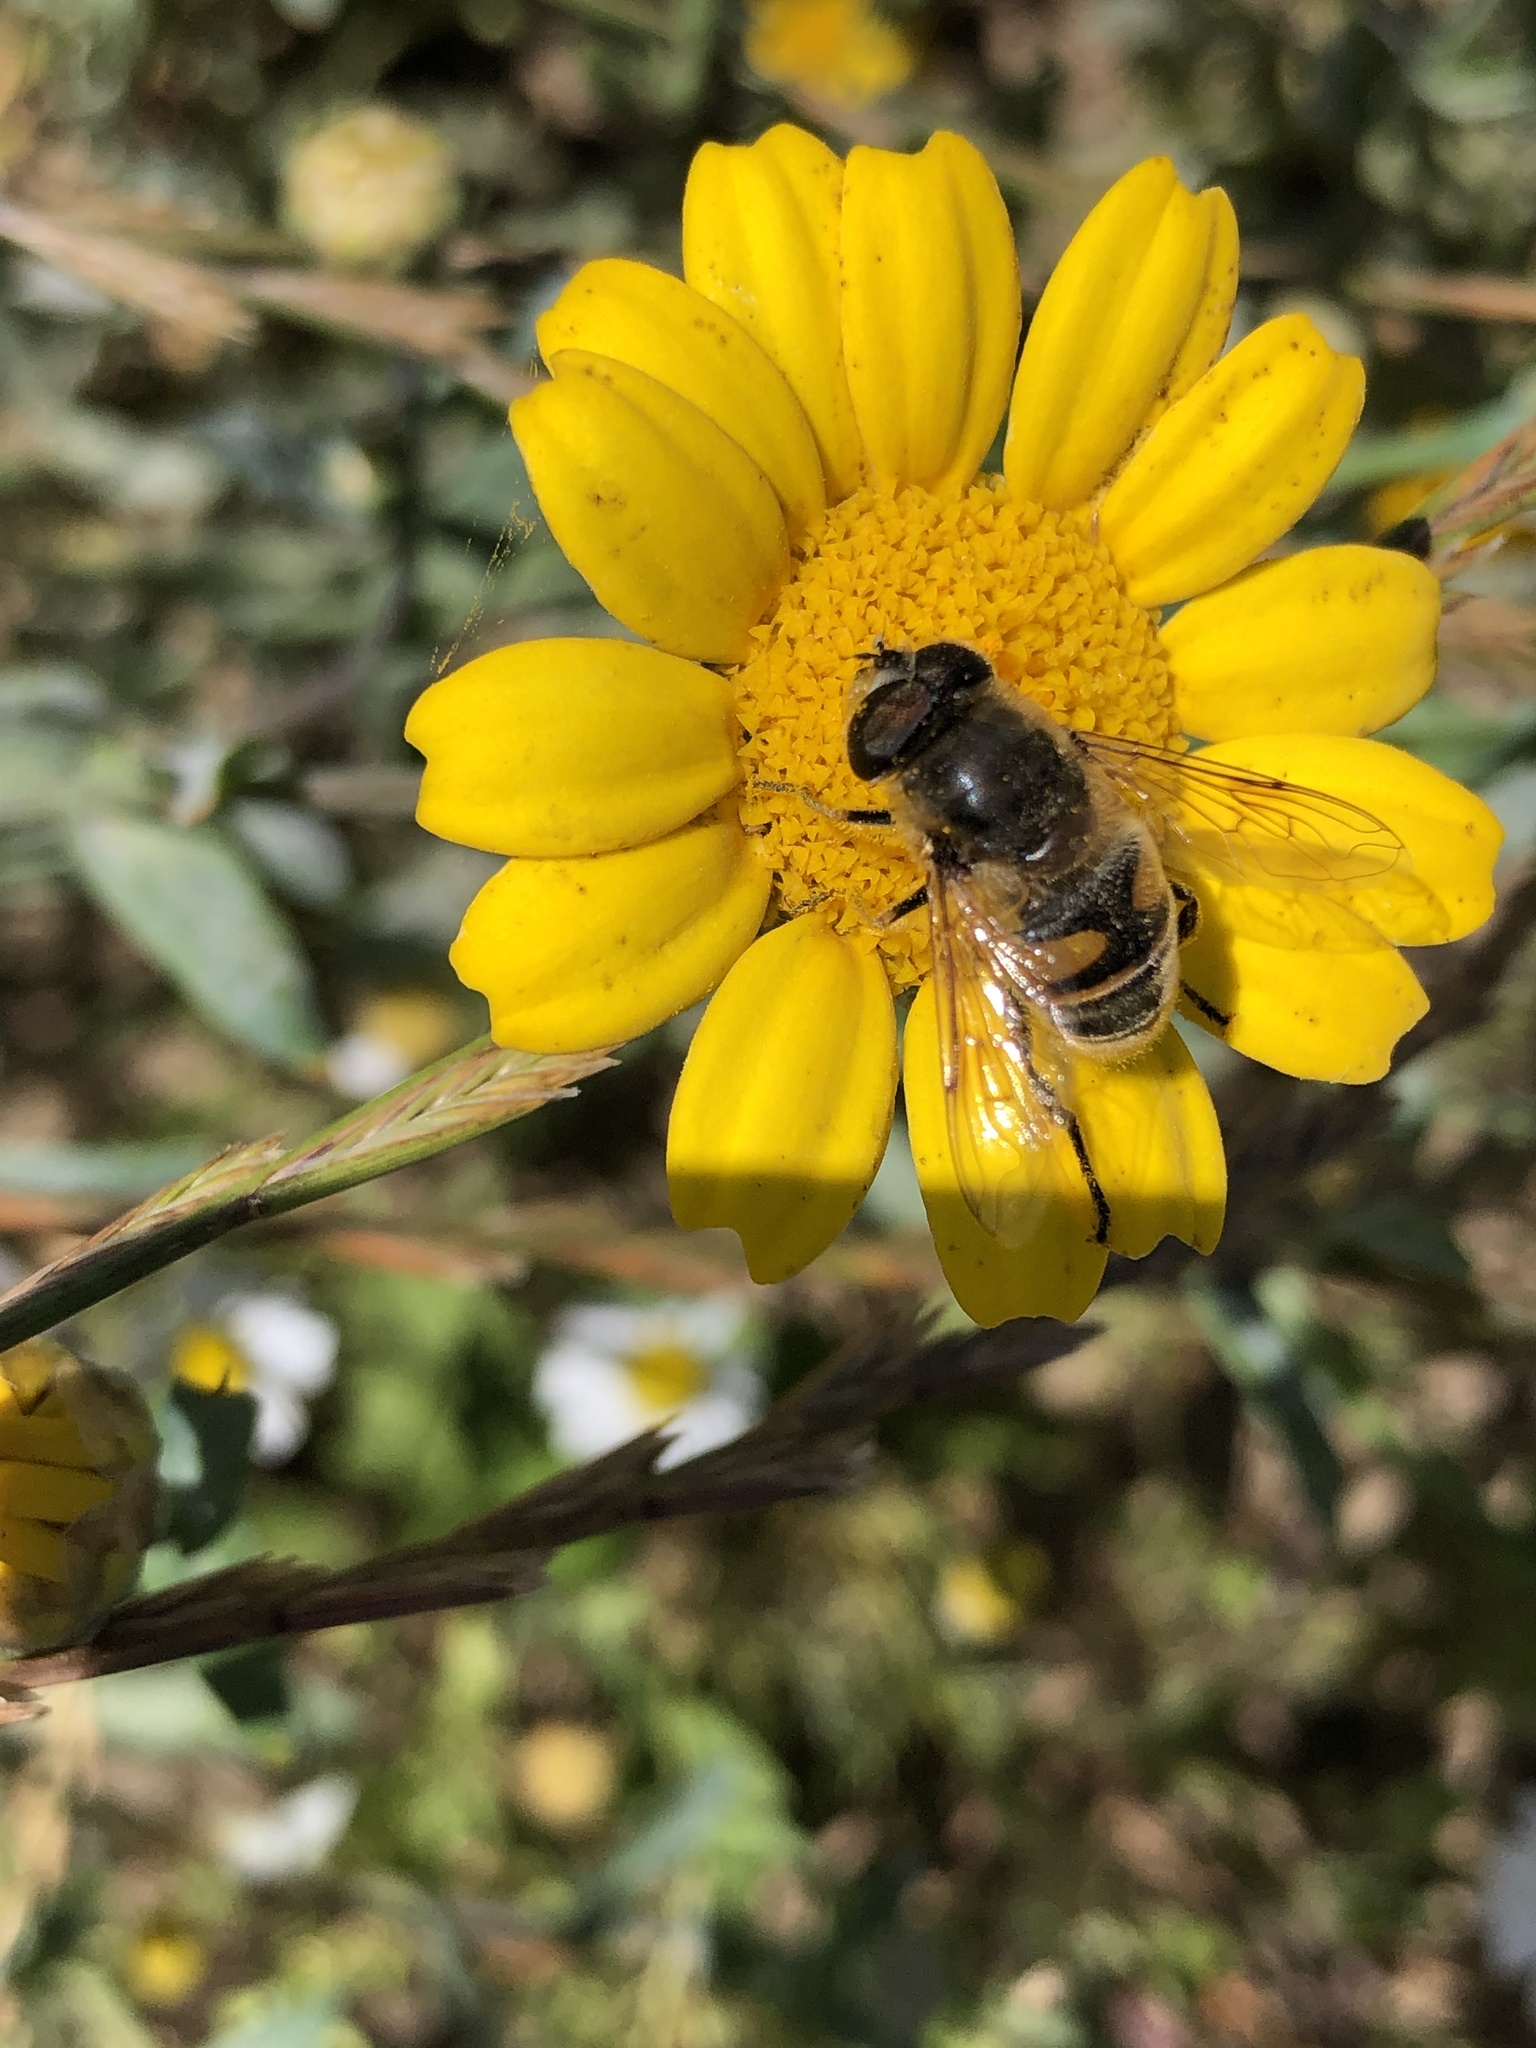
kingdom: Animalia
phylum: Arthropoda
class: Insecta
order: Diptera
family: Syrphidae
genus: Eristalis
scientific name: Eristalis tenax
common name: Drone fly
